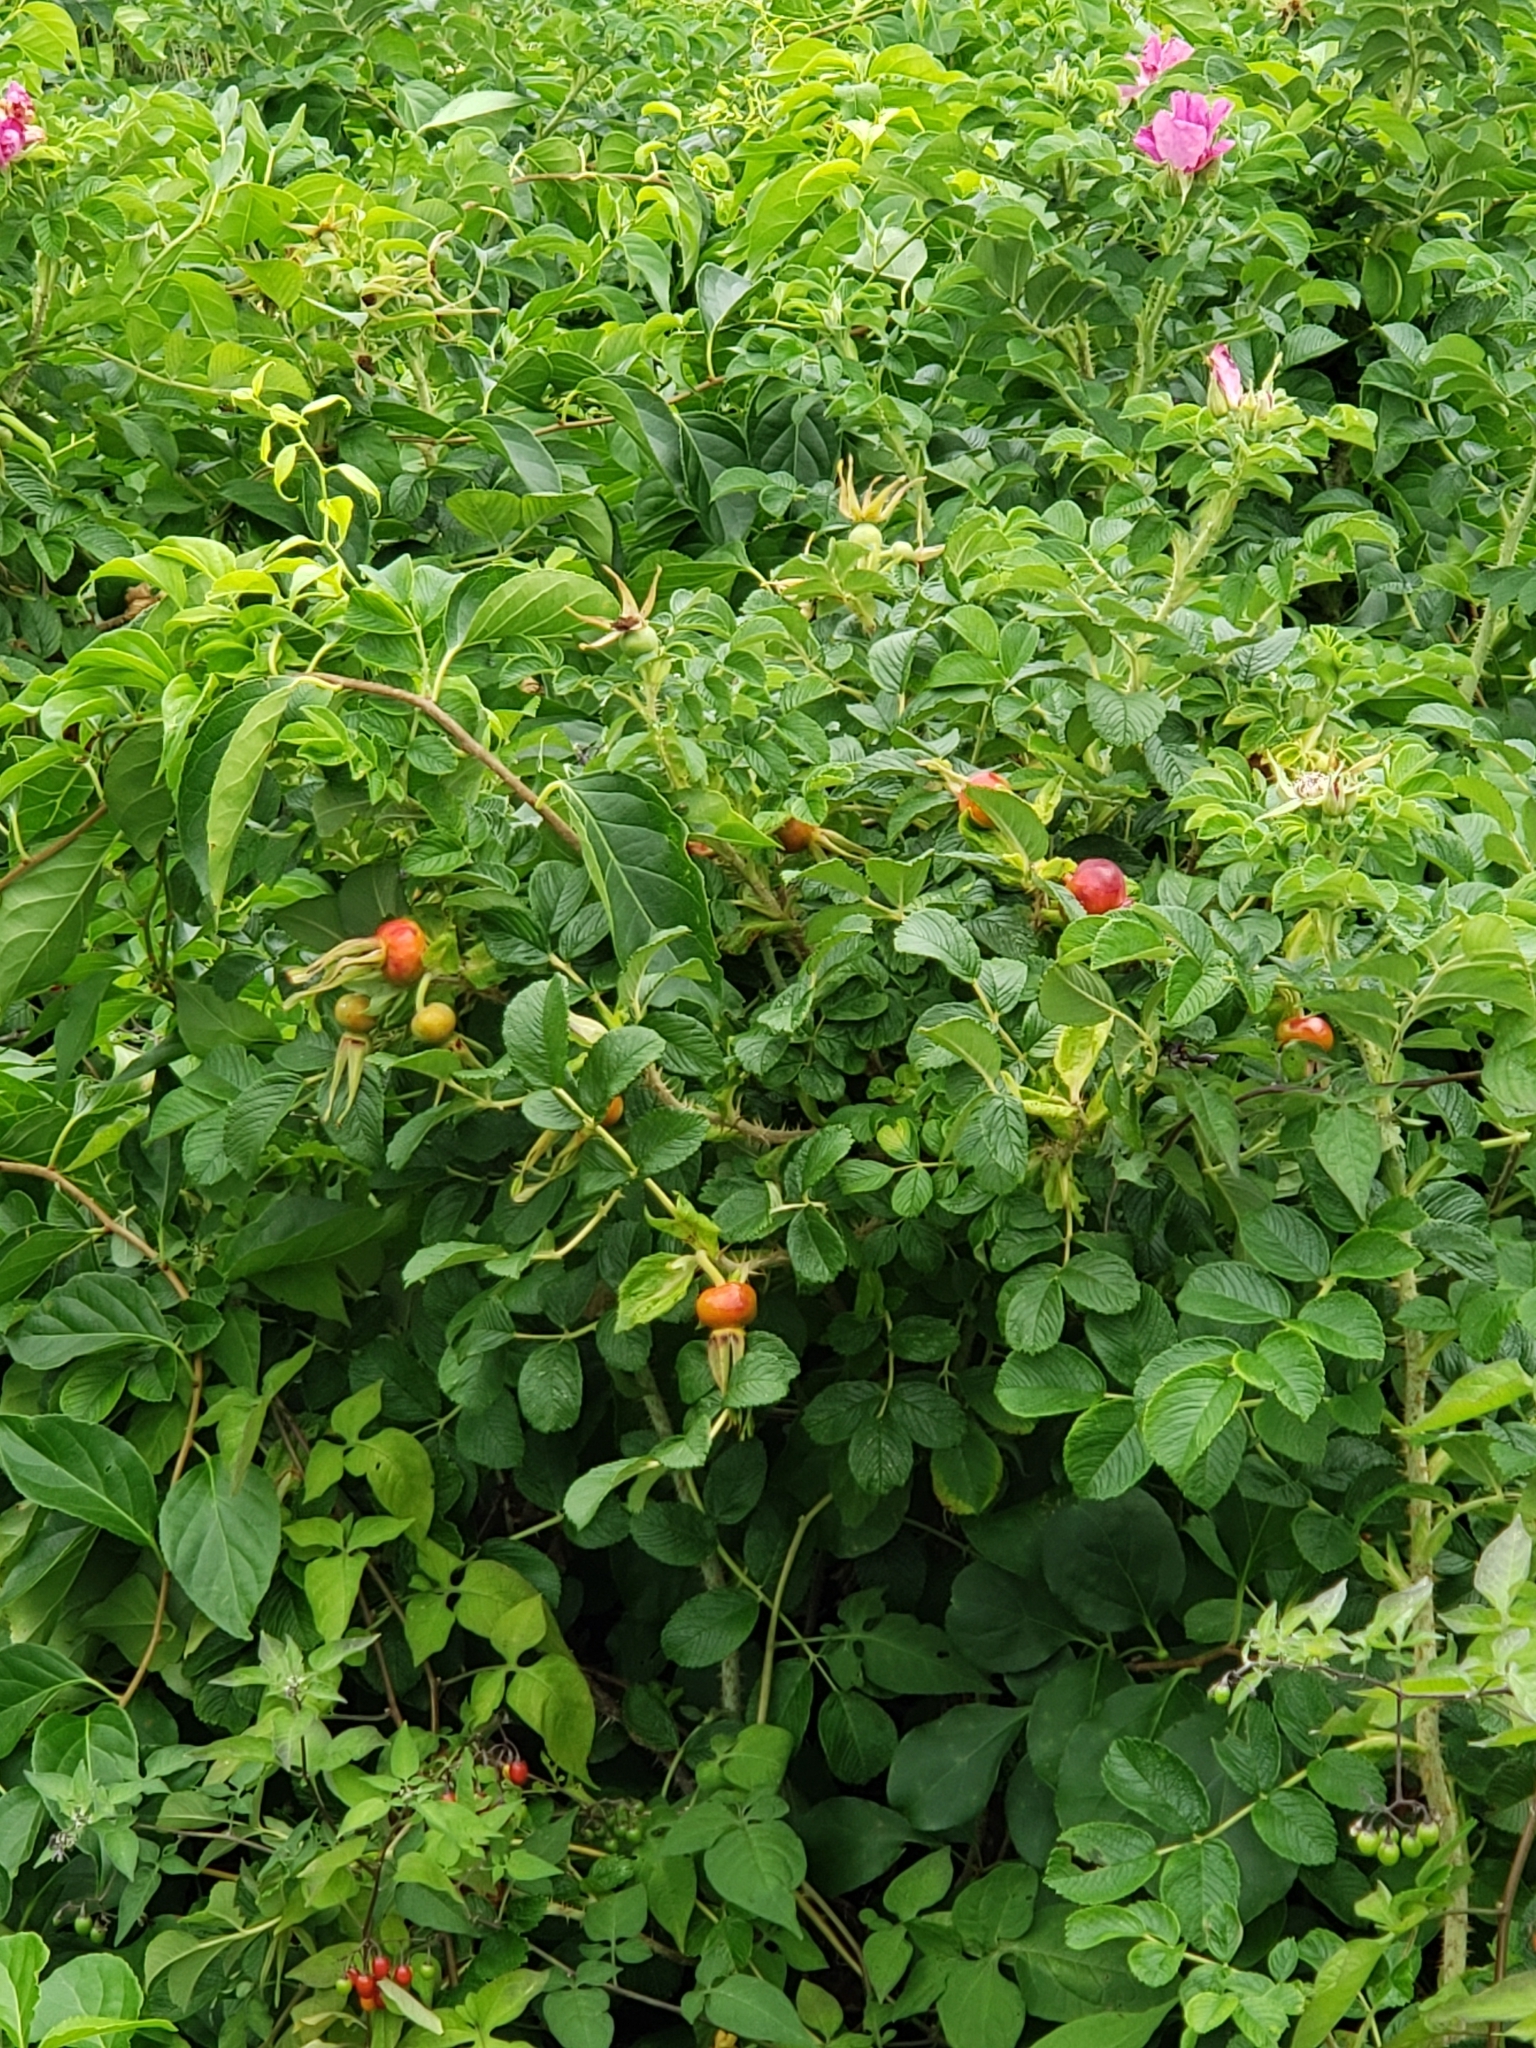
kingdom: Plantae
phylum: Tracheophyta
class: Magnoliopsida
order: Rosales
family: Rosaceae
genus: Rosa
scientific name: Rosa rugosa
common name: Japanese rose
